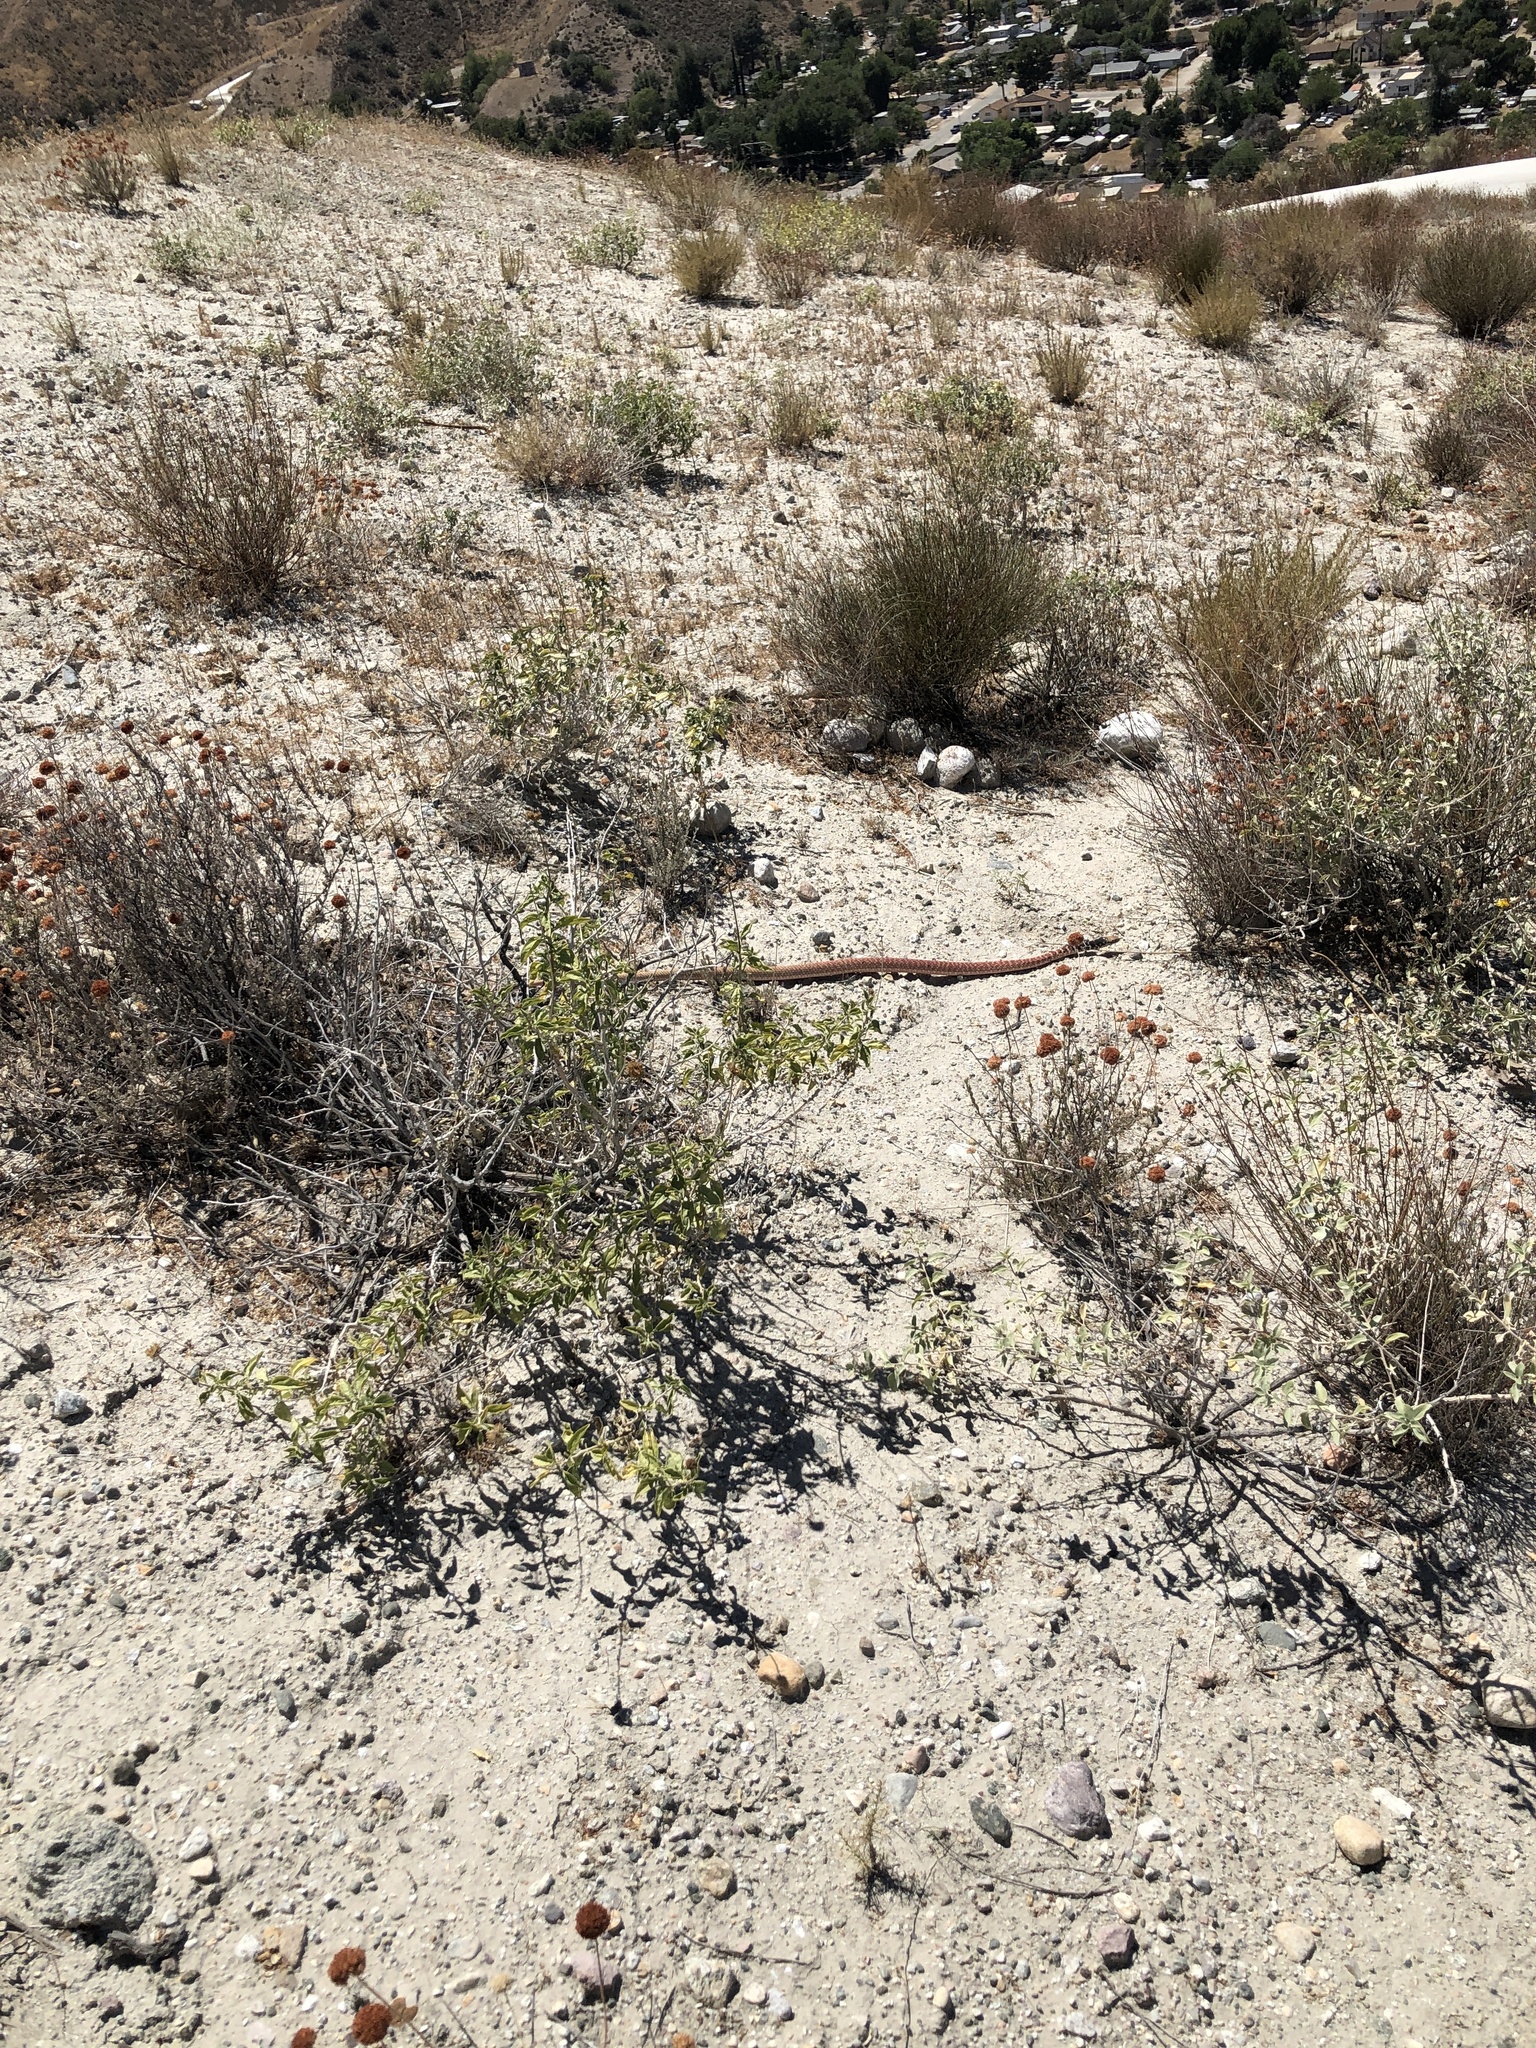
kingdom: Animalia
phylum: Chordata
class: Squamata
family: Colubridae
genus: Masticophis
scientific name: Masticophis flagellum
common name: Coachwhip
